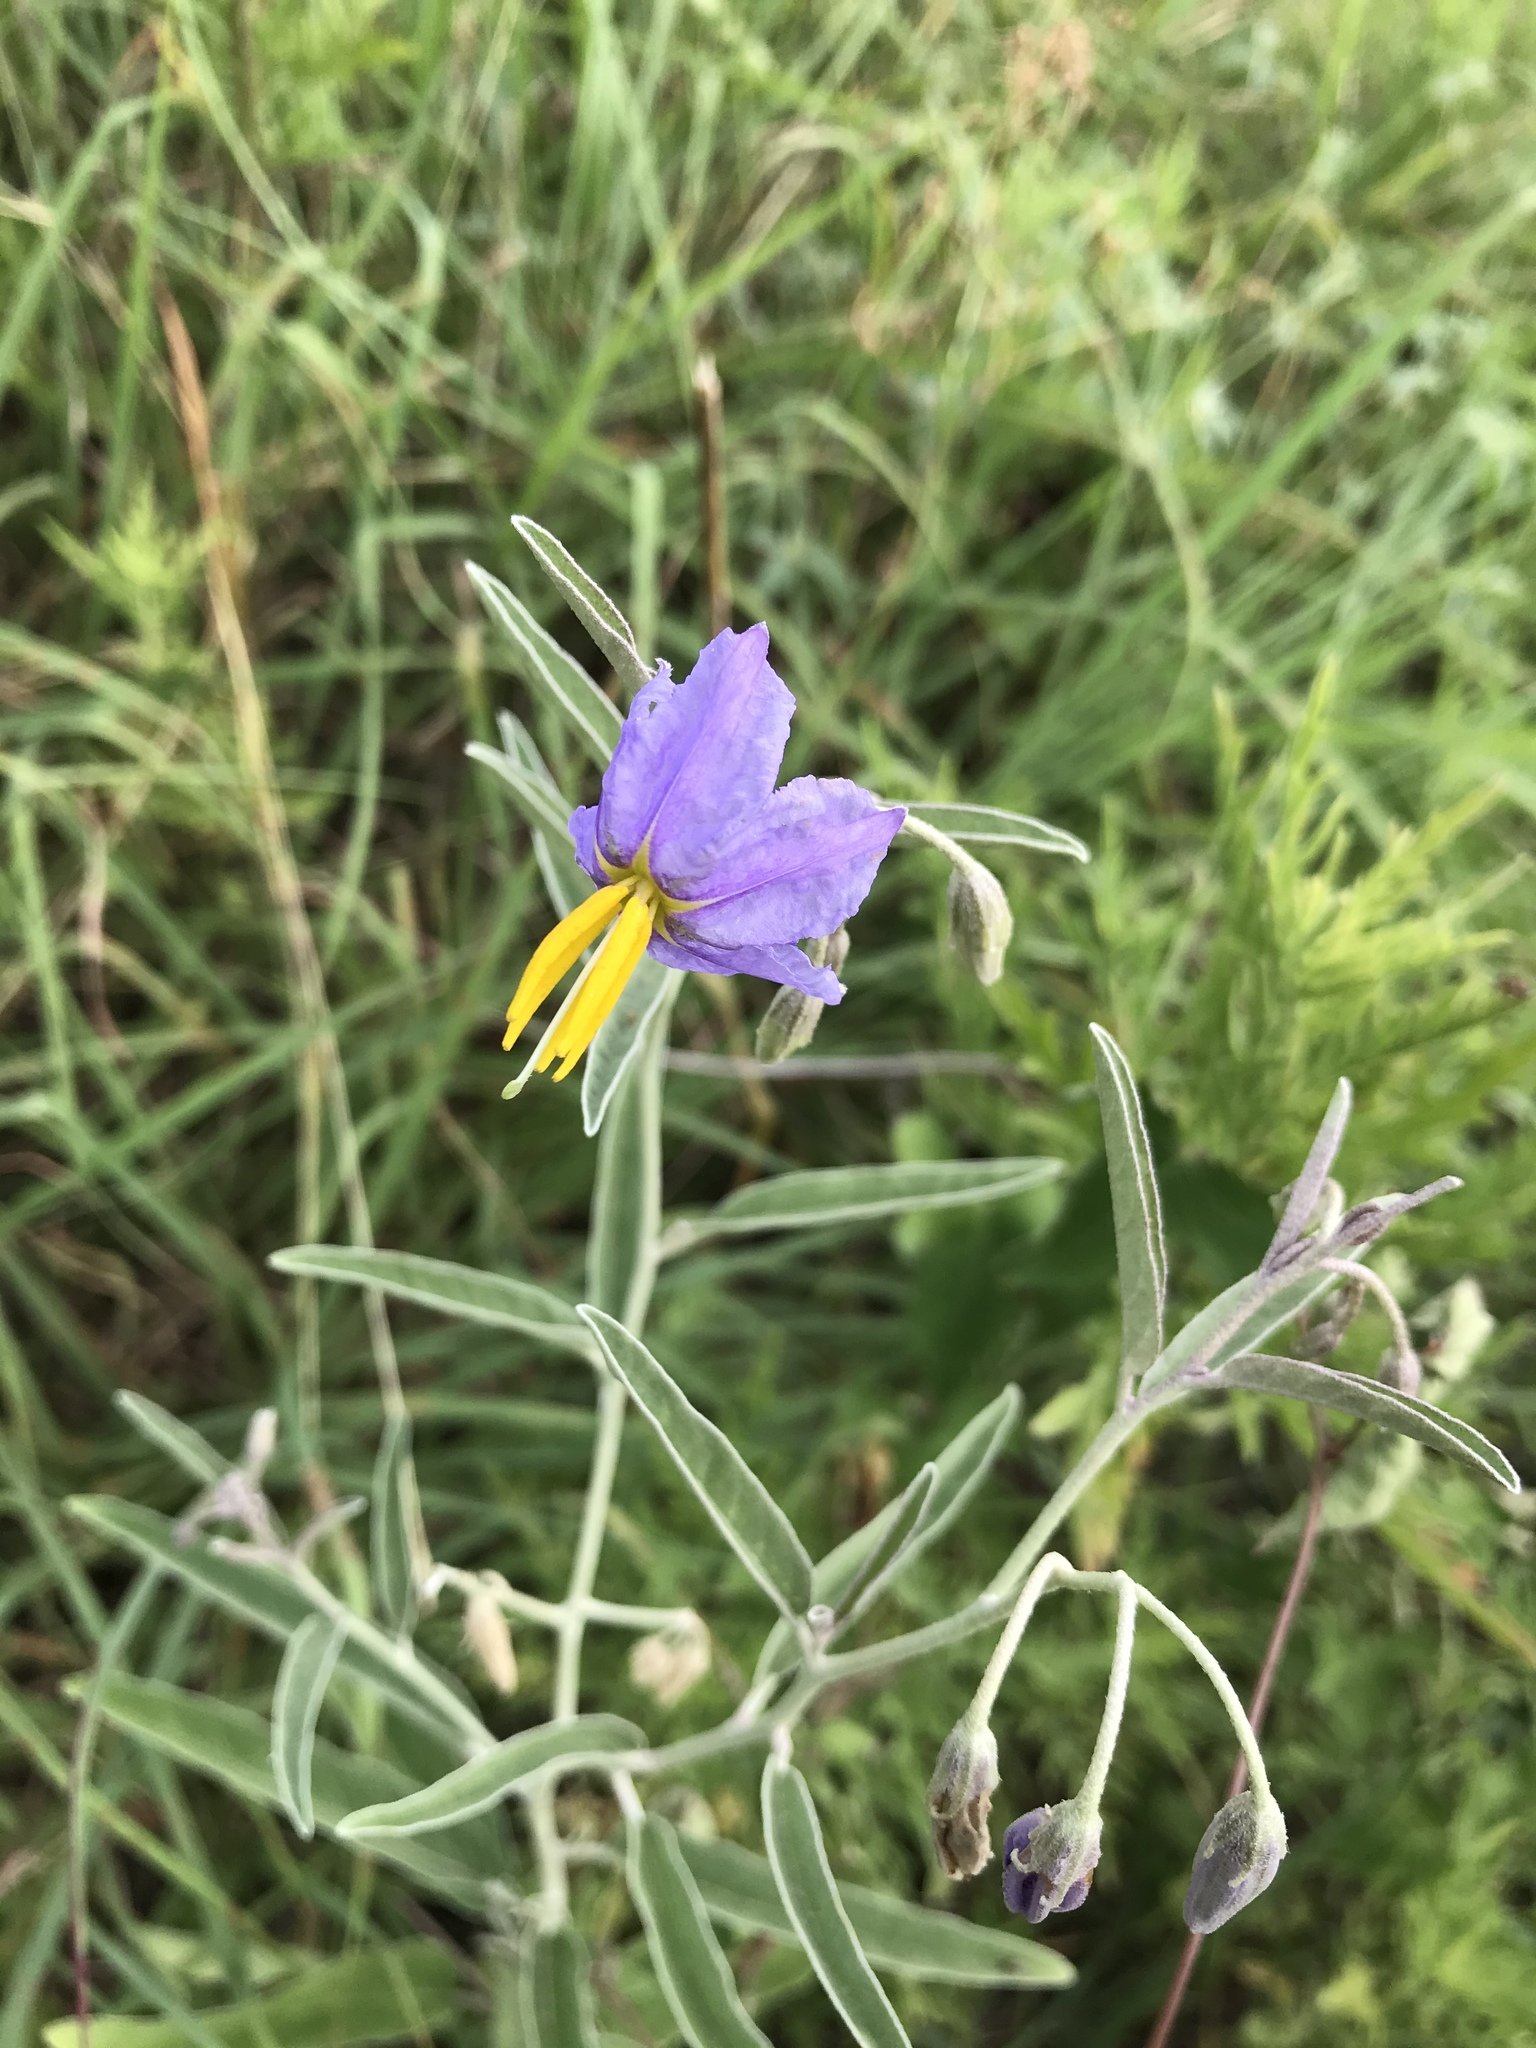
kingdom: Plantae
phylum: Tracheophyta
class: Magnoliopsida
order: Solanales
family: Solanaceae
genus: Solanum
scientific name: Solanum elaeagnifolium
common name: Silverleaf nightshade
